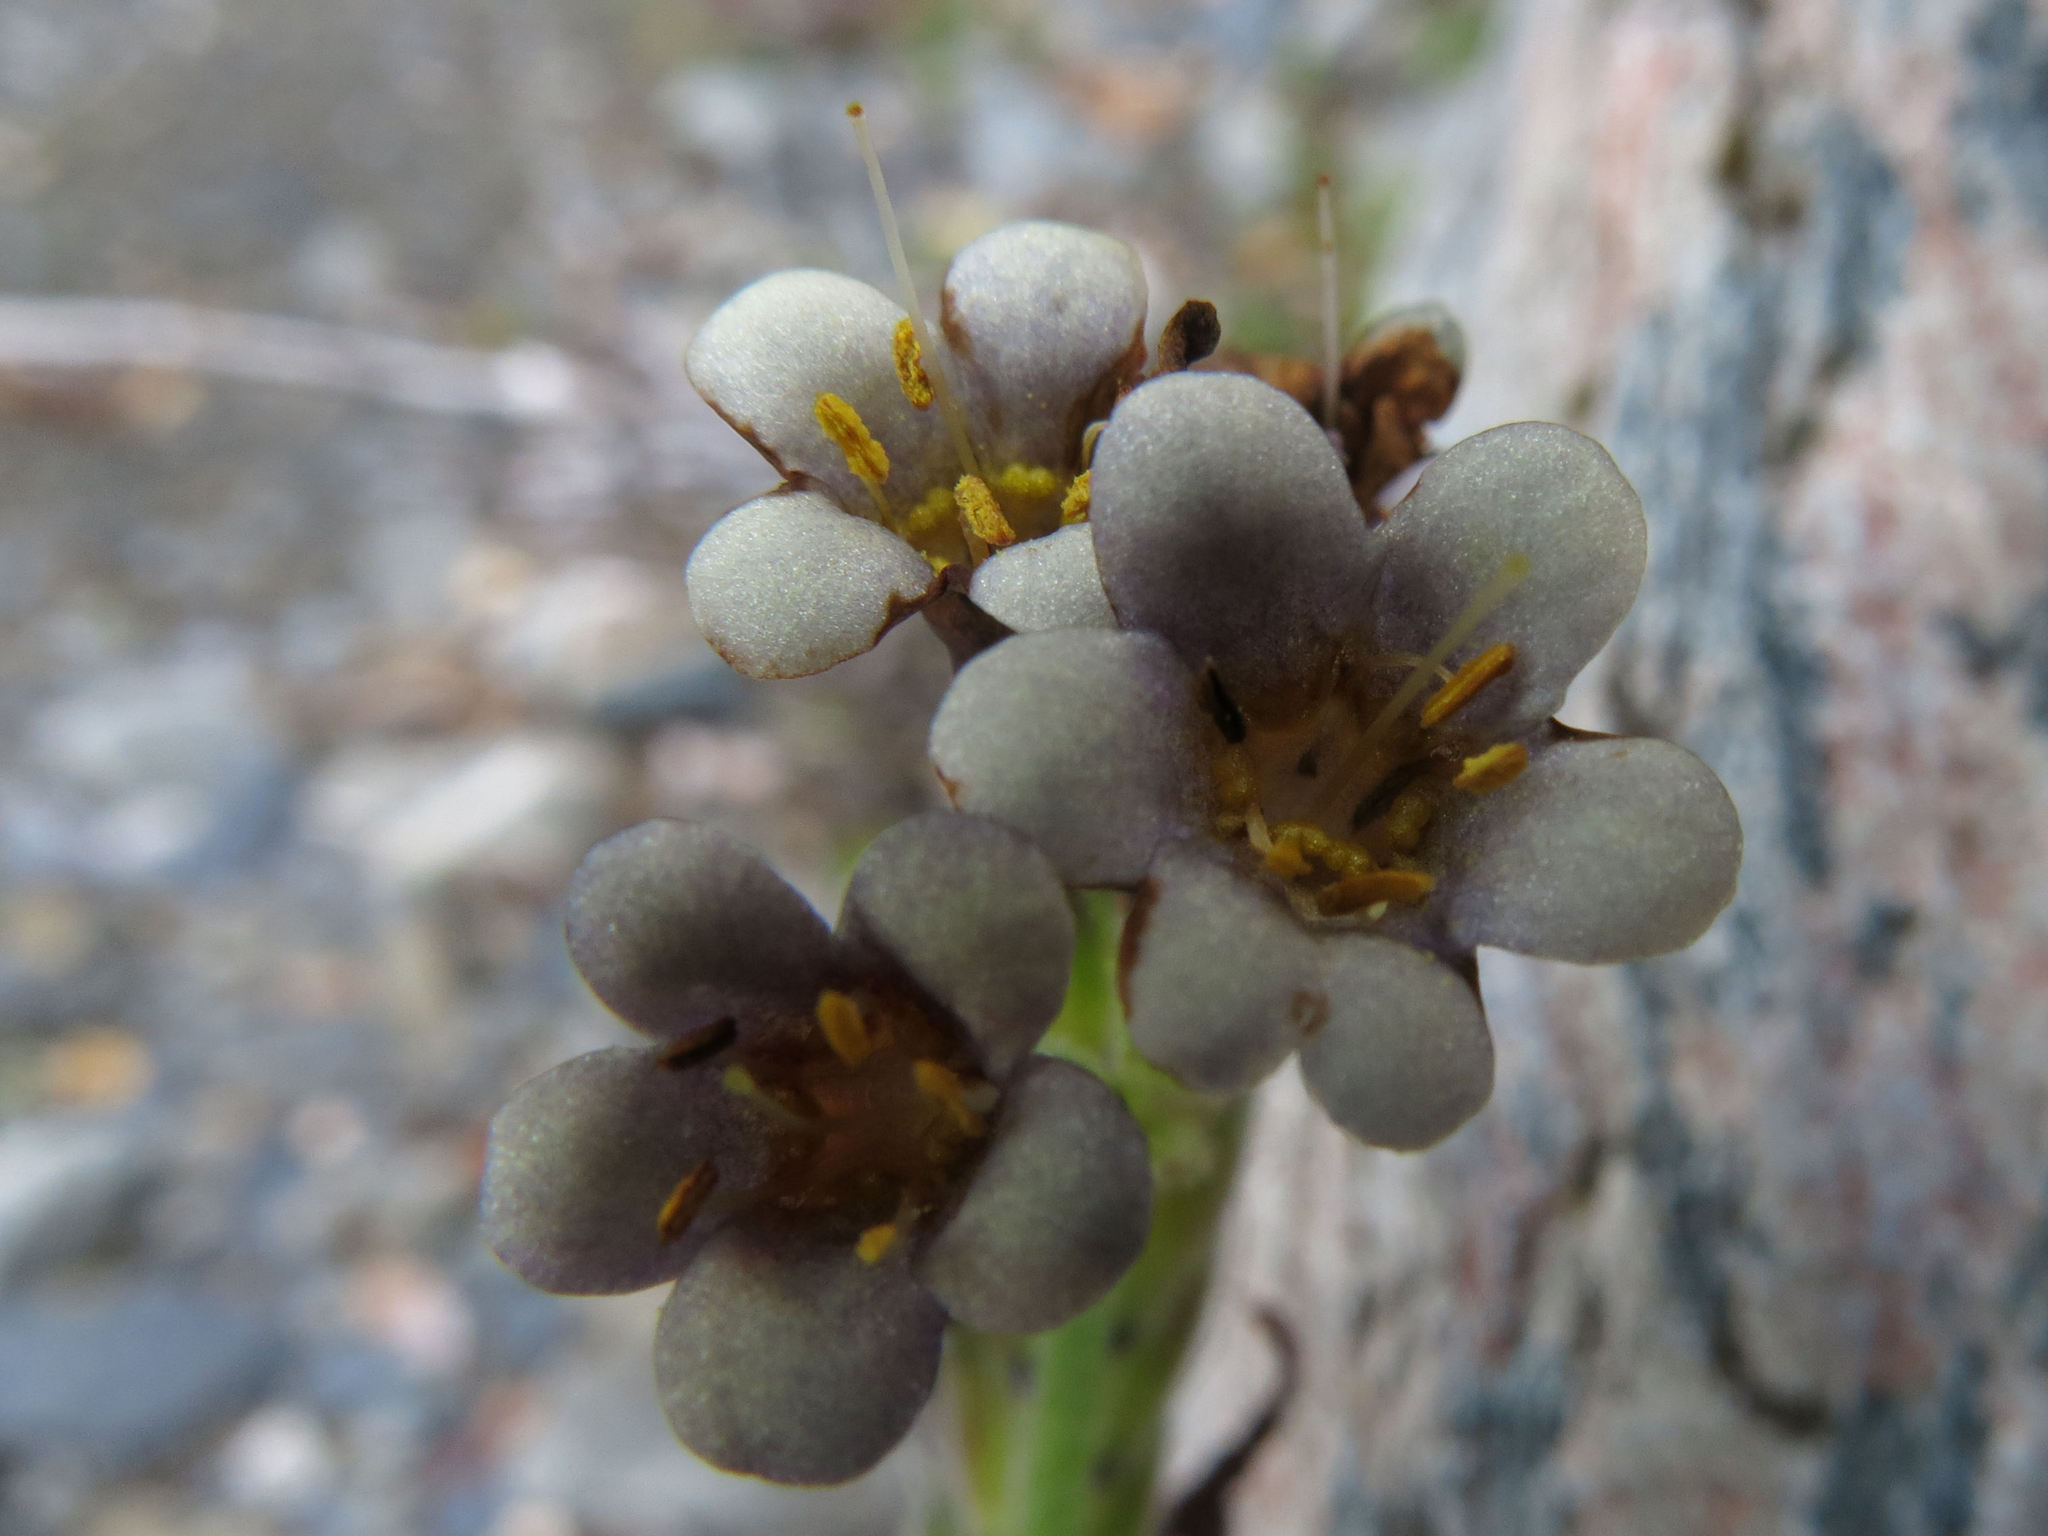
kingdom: Plantae
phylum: Tracheophyta
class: Magnoliopsida
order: Boraginales
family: Boraginaceae
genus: Myosotis
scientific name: Myosotis macrantha
